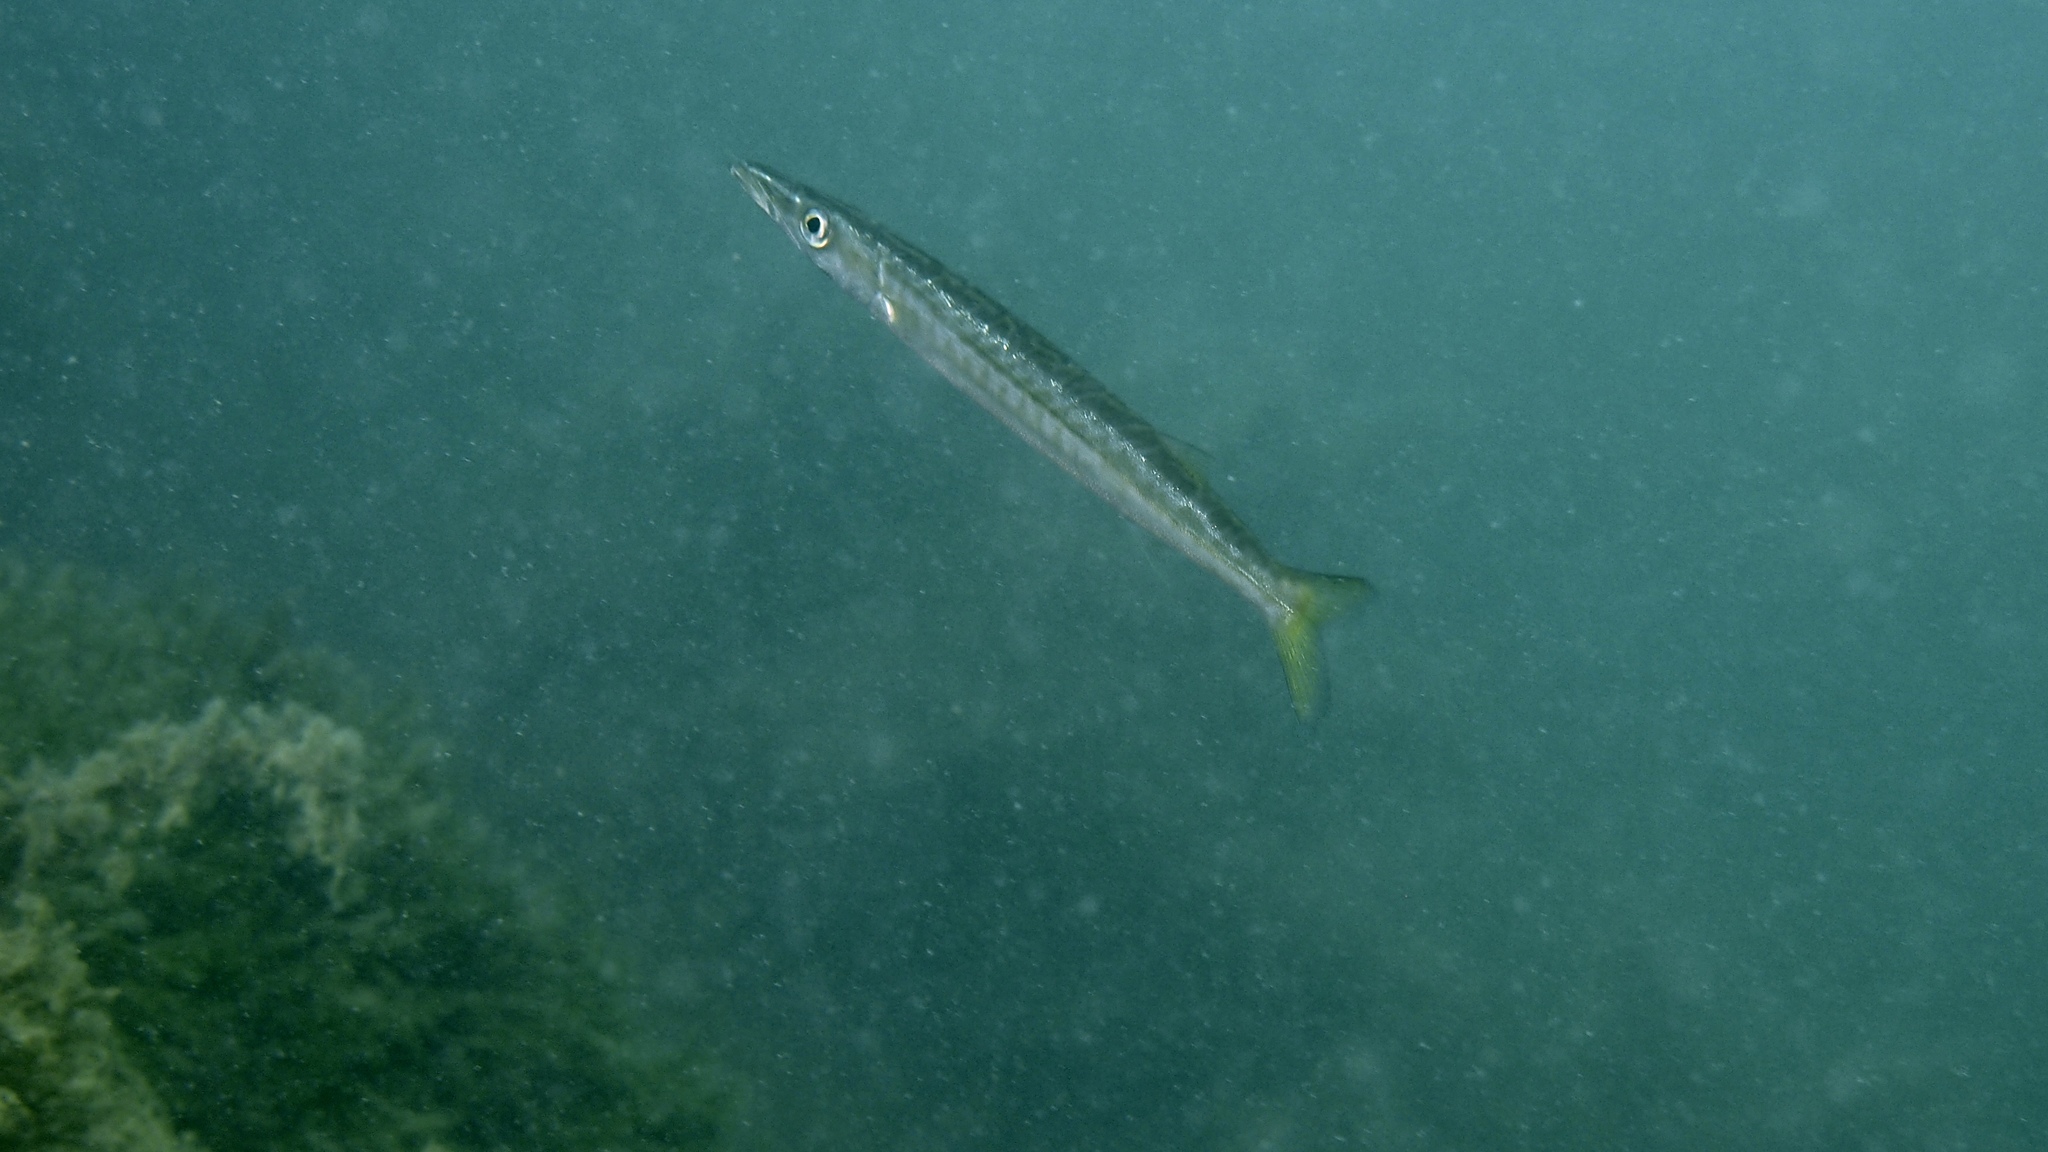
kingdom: Animalia
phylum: Chordata
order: Perciformes
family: Sphyraenidae
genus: Sphyraena
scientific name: Sphyraena novaehollandiae
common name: Arrow barracuda
